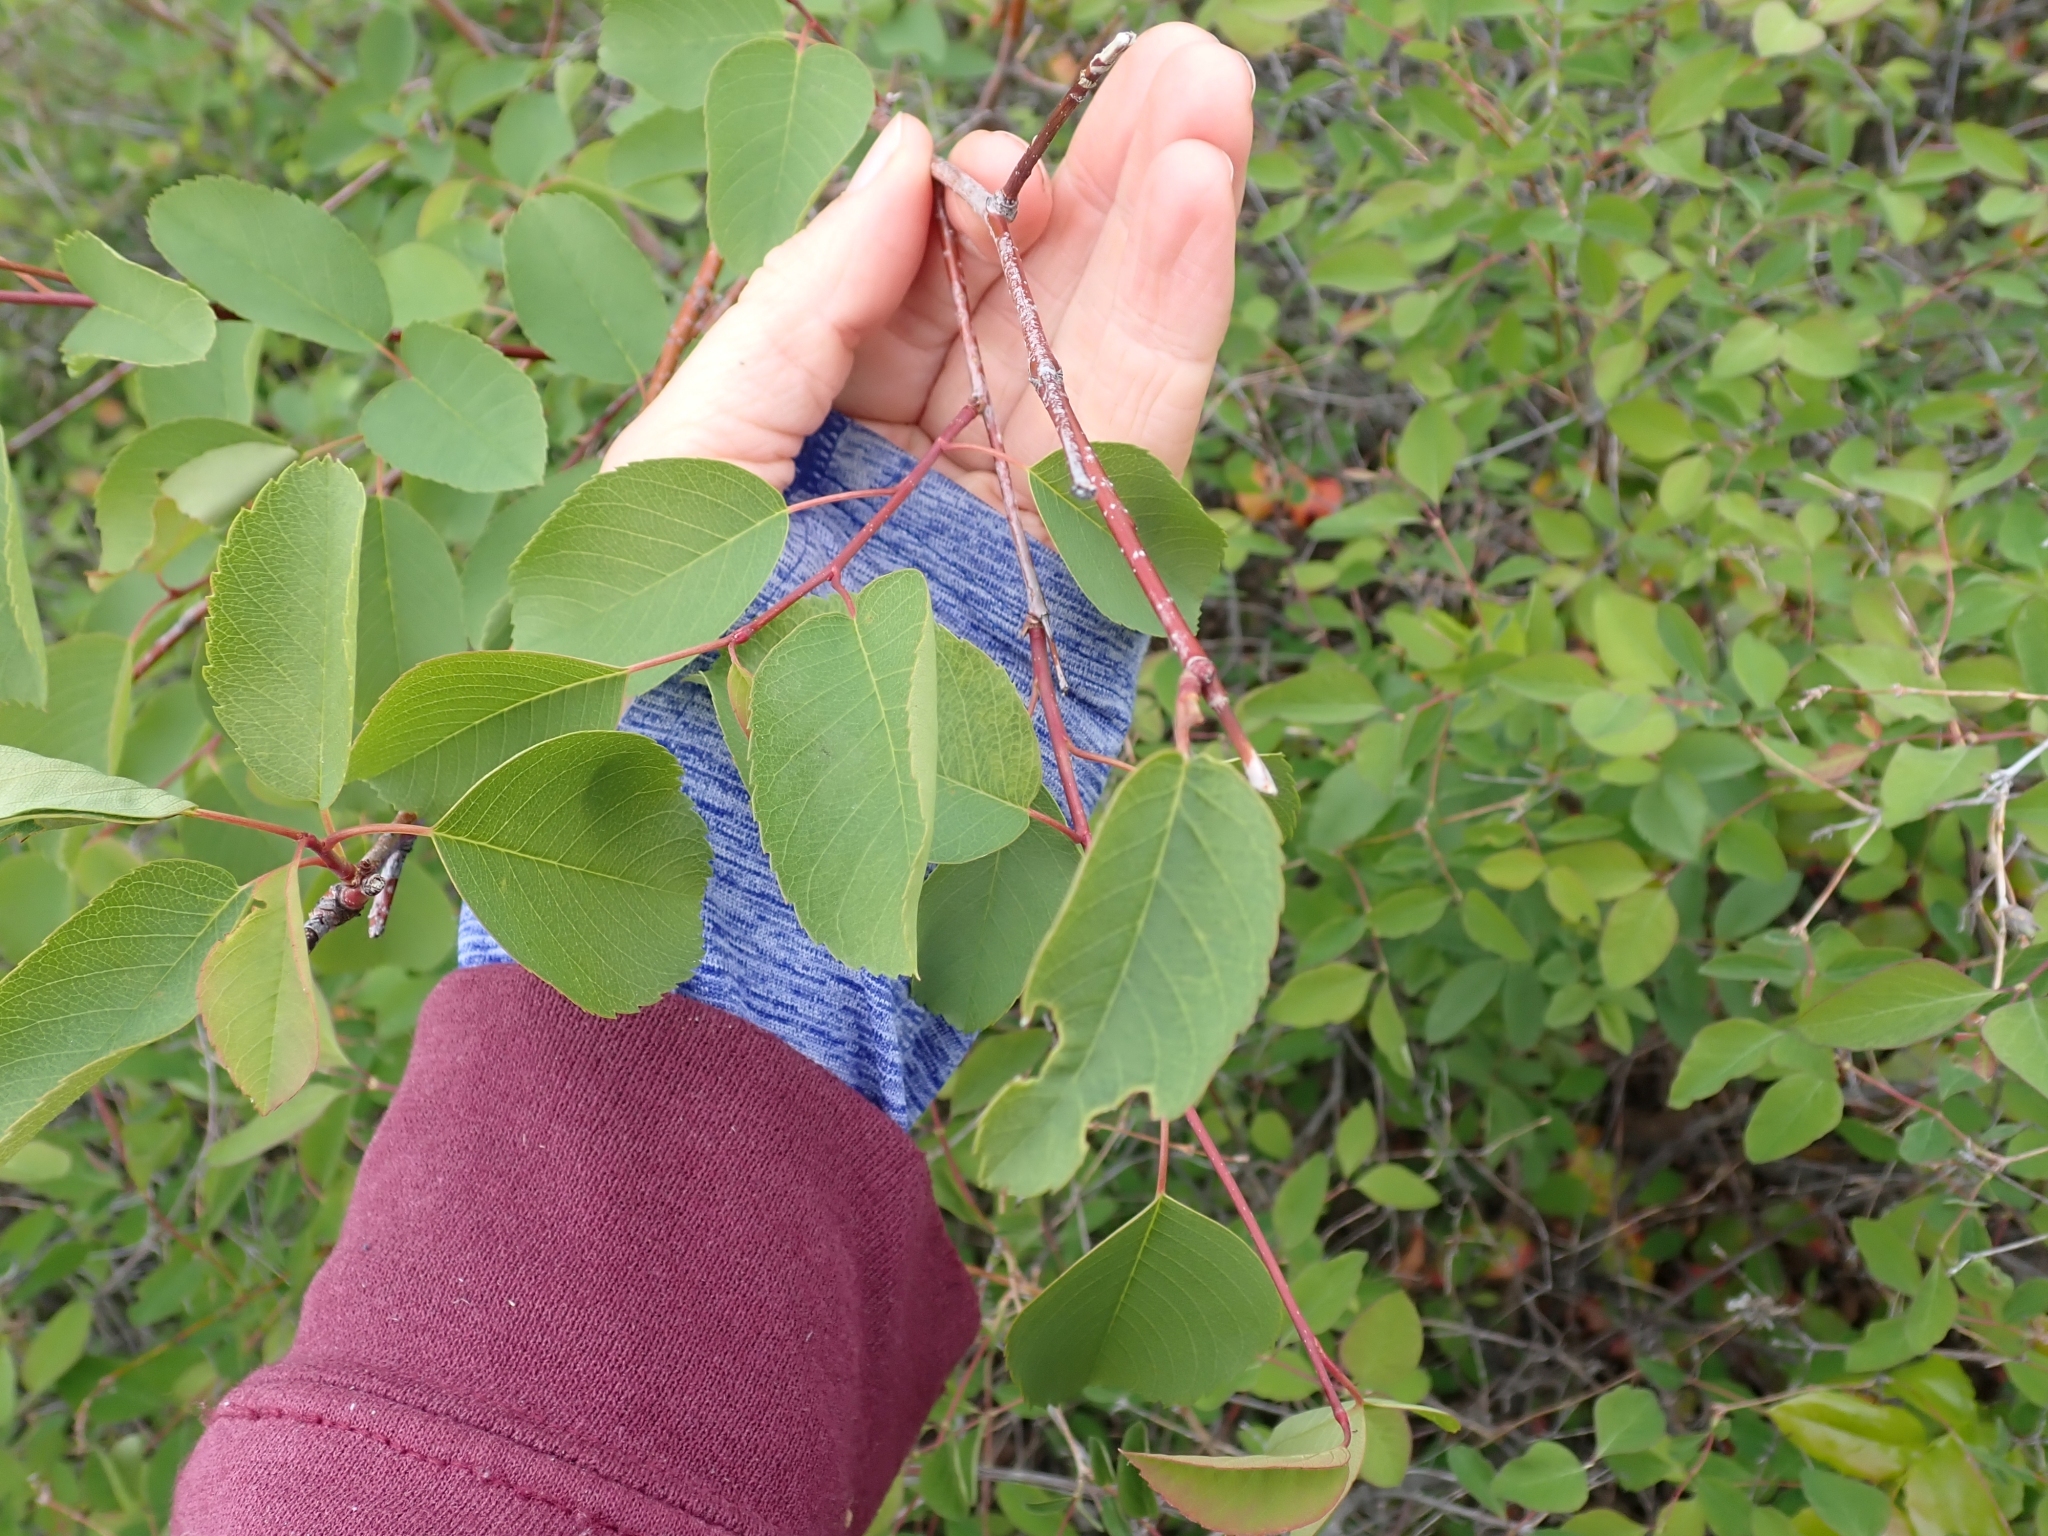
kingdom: Plantae
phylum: Tracheophyta
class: Magnoliopsida
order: Rosales
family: Rosaceae
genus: Amelanchier
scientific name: Amelanchier alnifolia
